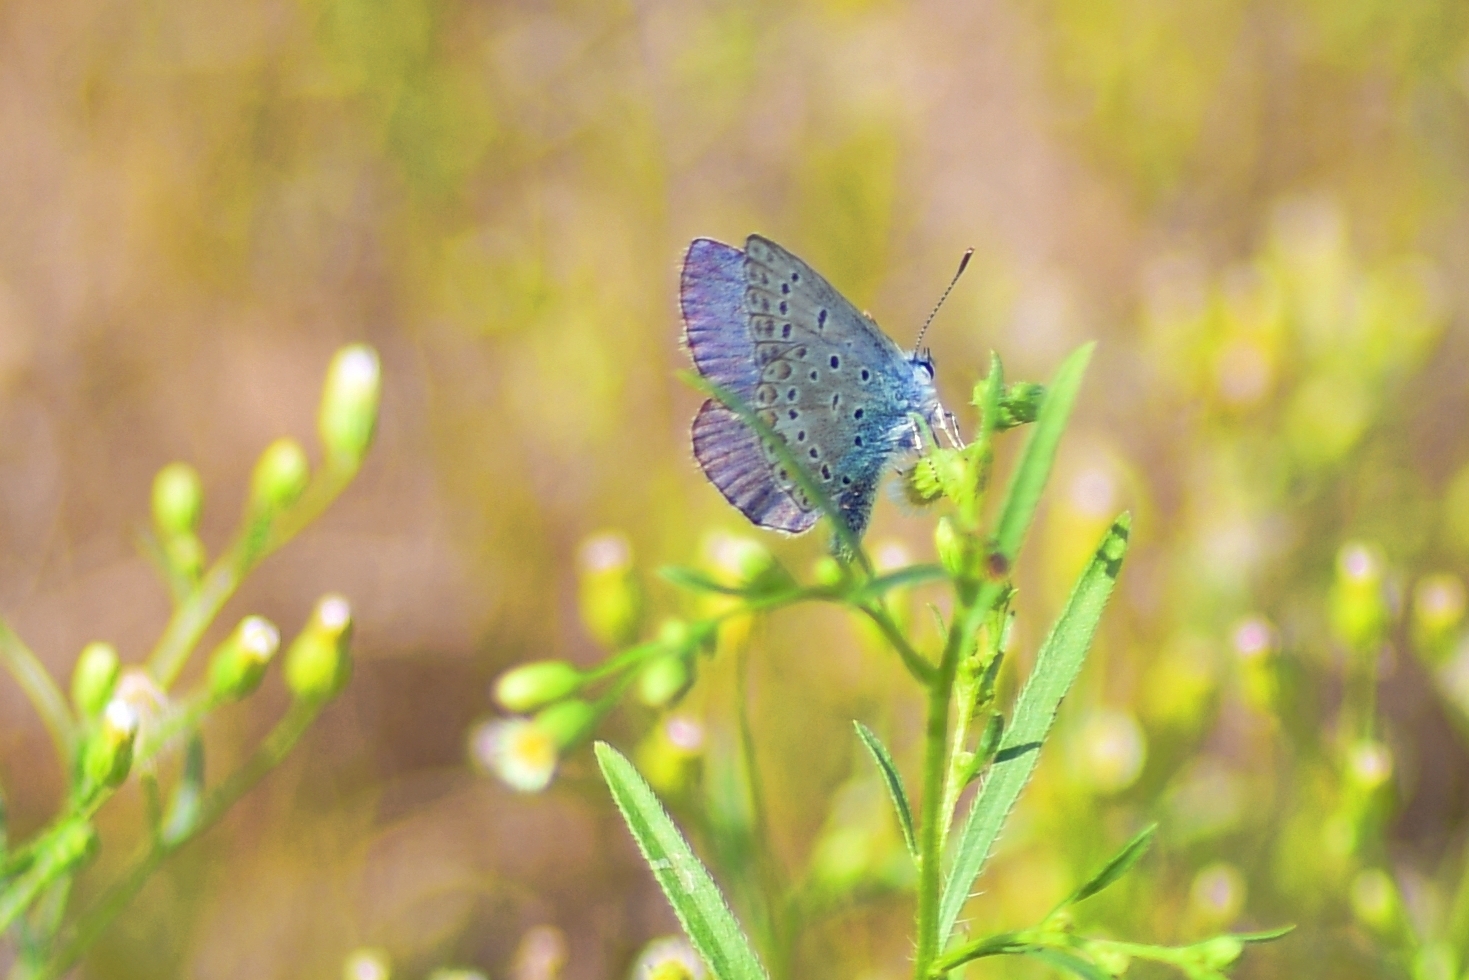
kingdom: Animalia
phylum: Arthropoda
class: Insecta
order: Lepidoptera
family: Lycaenidae
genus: Polyommatus
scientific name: Polyommatus icarus
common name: Common blue
